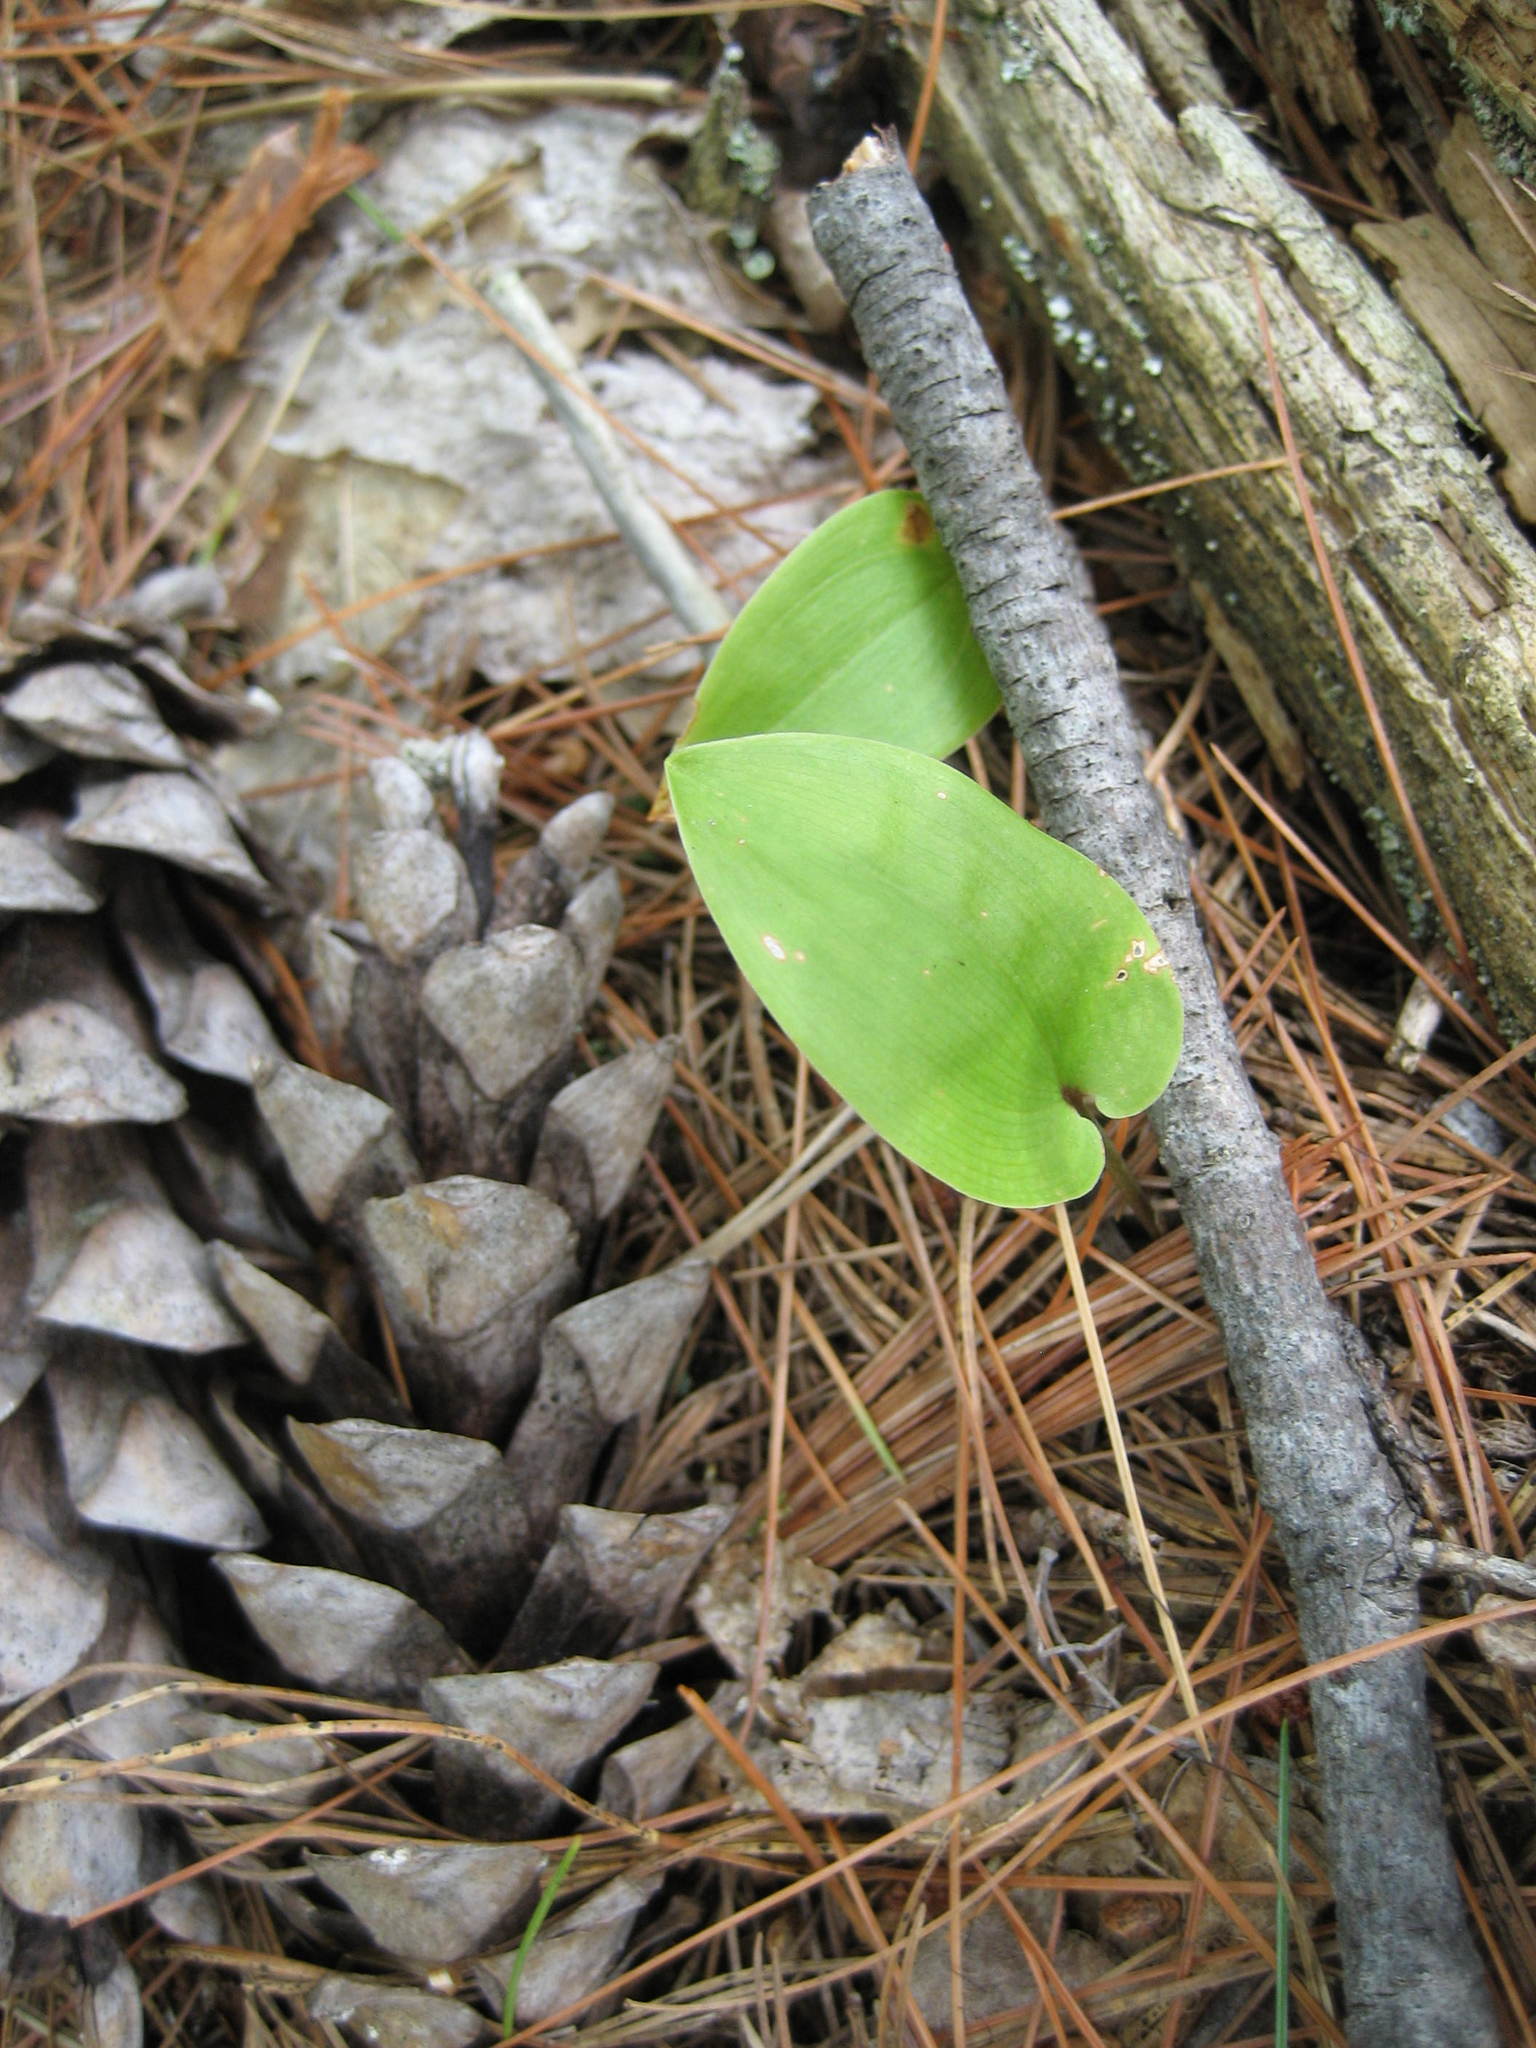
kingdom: Plantae
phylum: Tracheophyta
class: Liliopsida
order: Asparagales
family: Asparagaceae
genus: Maianthemum
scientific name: Maianthemum canadense
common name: False lily-of-the-valley
